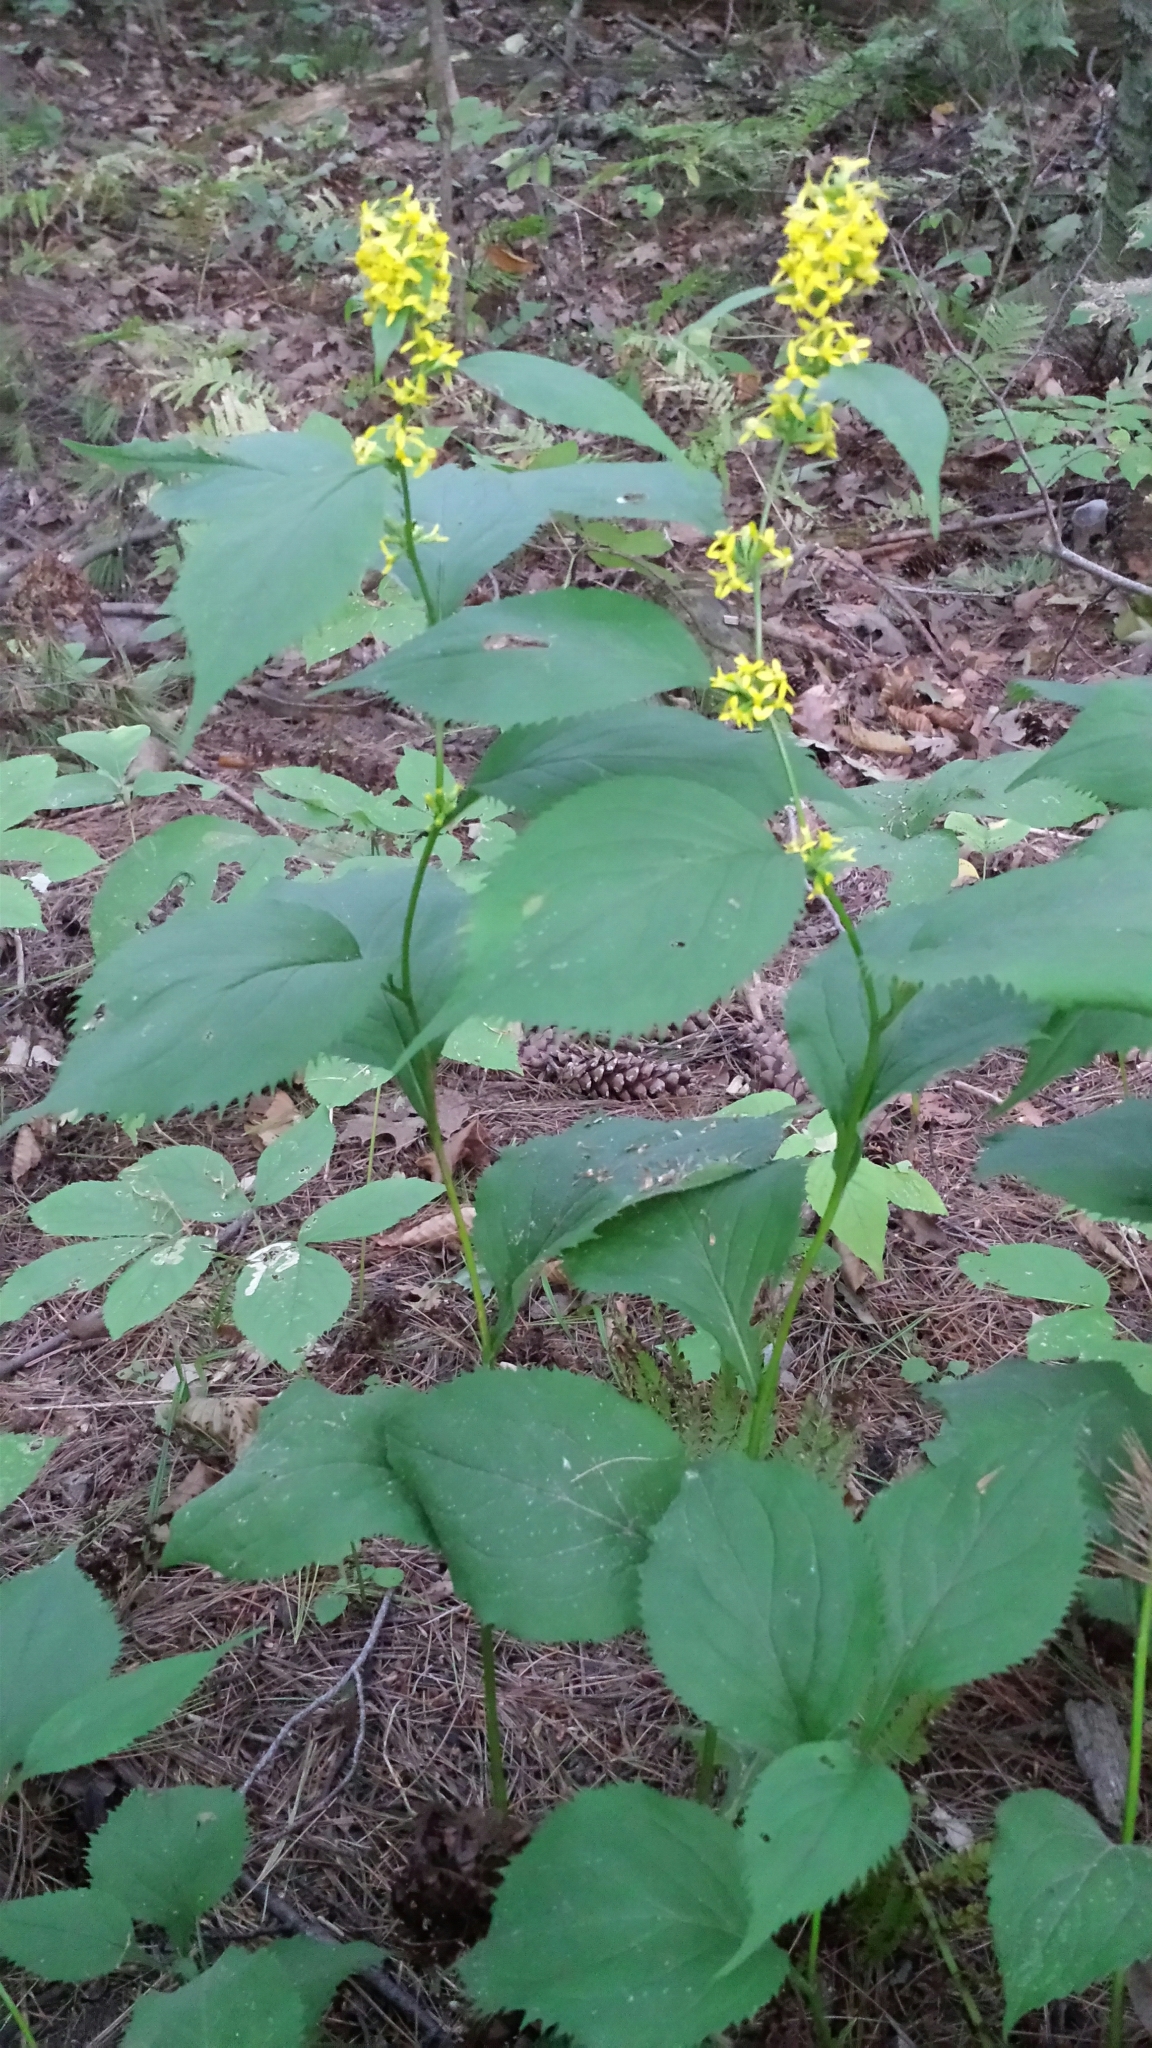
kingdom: Plantae
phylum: Tracheophyta
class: Magnoliopsida
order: Asterales
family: Asteraceae
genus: Solidago
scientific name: Solidago flexicaulis
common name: Zig-zag goldenrod
